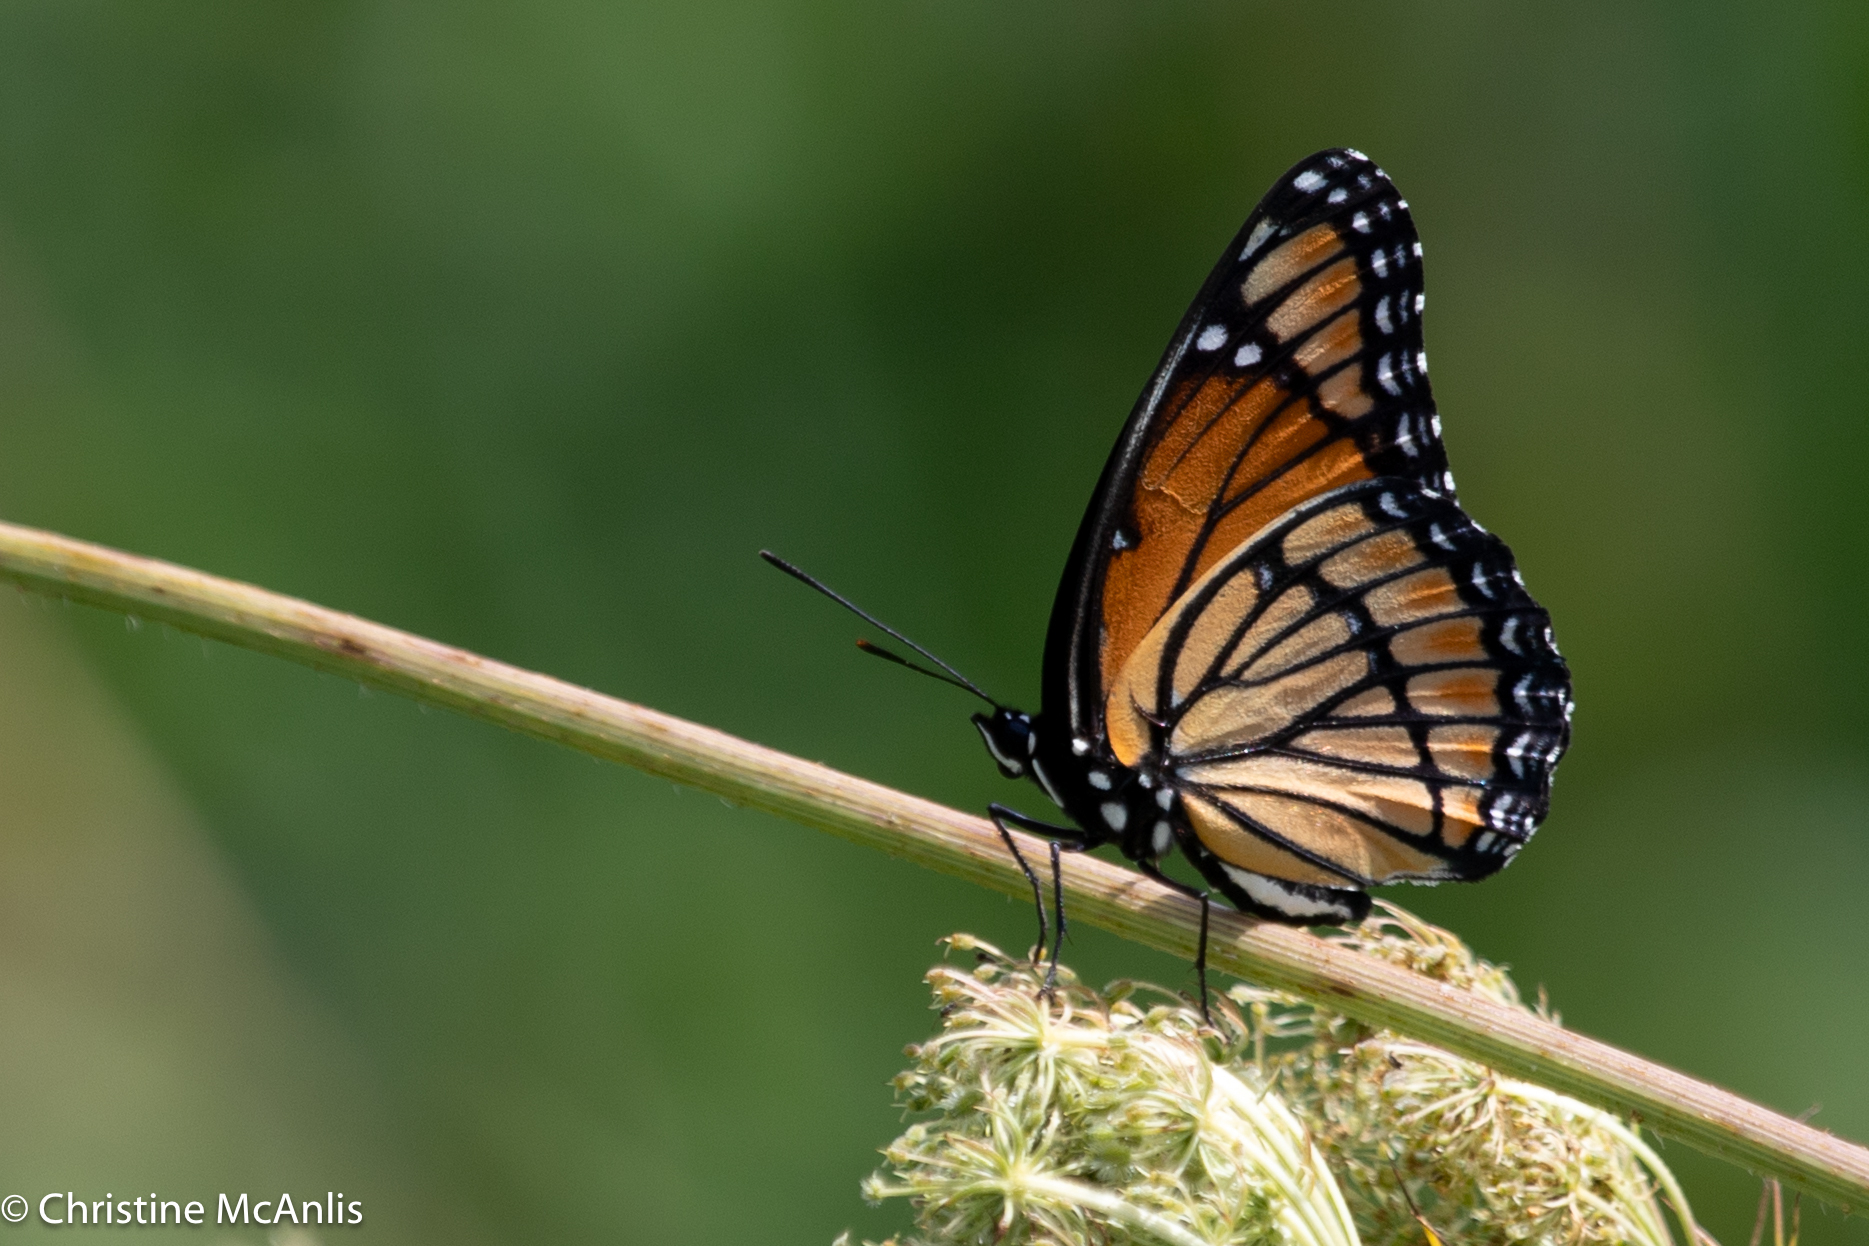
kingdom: Animalia
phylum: Arthropoda
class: Insecta
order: Lepidoptera
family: Nymphalidae
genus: Limenitis
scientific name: Limenitis archippus
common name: Viceroy
